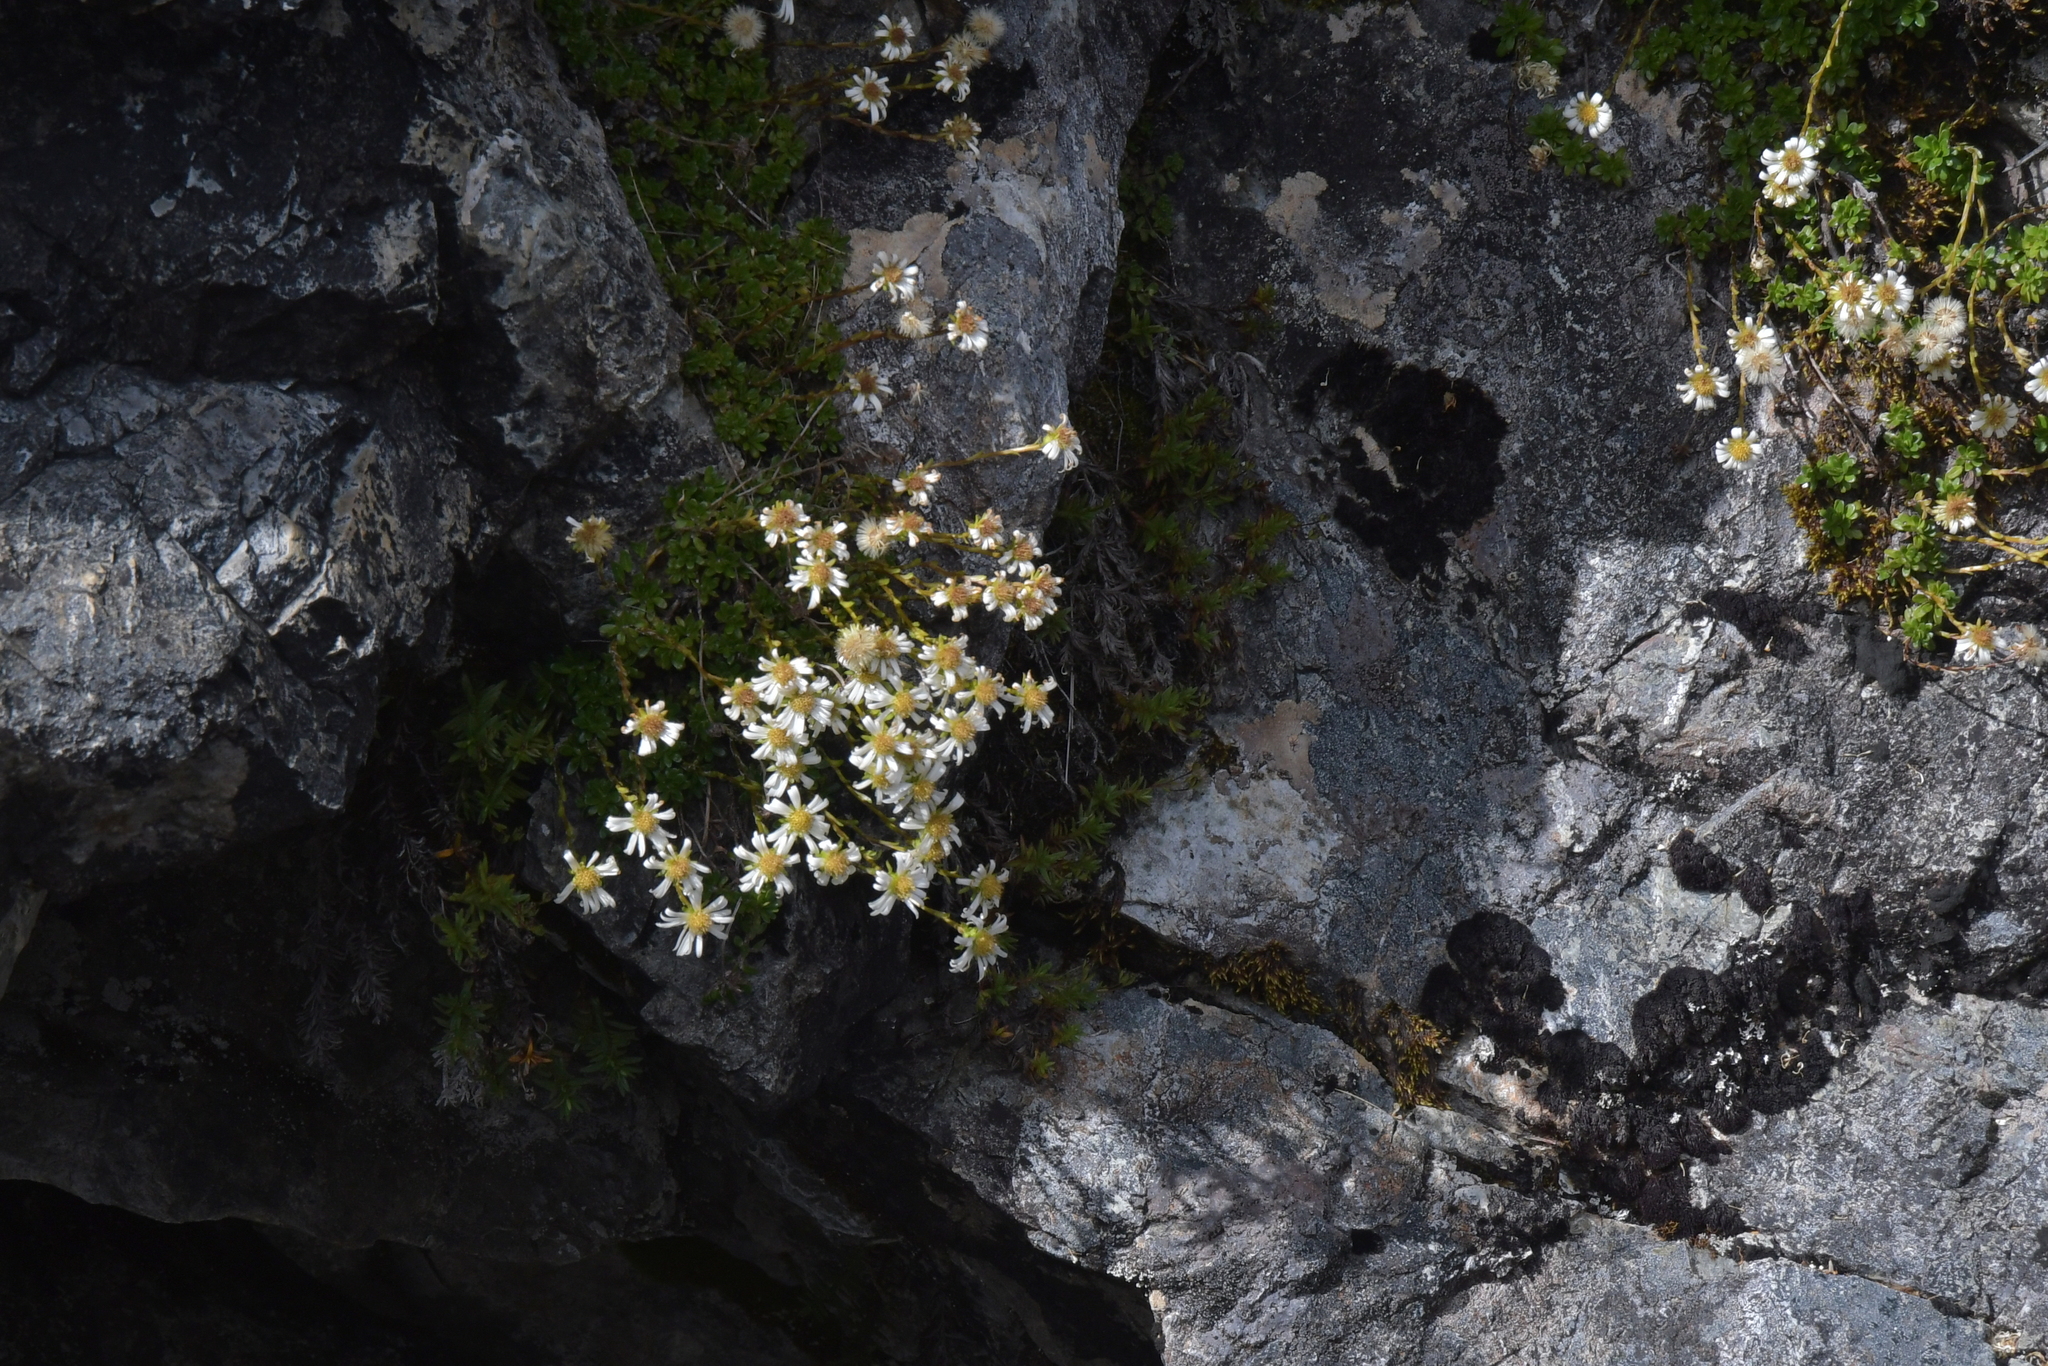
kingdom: Plantae
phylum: Tracheophyta
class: Magnoliopsida
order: Asterales
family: Asteraceae
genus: Celmisia
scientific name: Celmisia bellidioides
